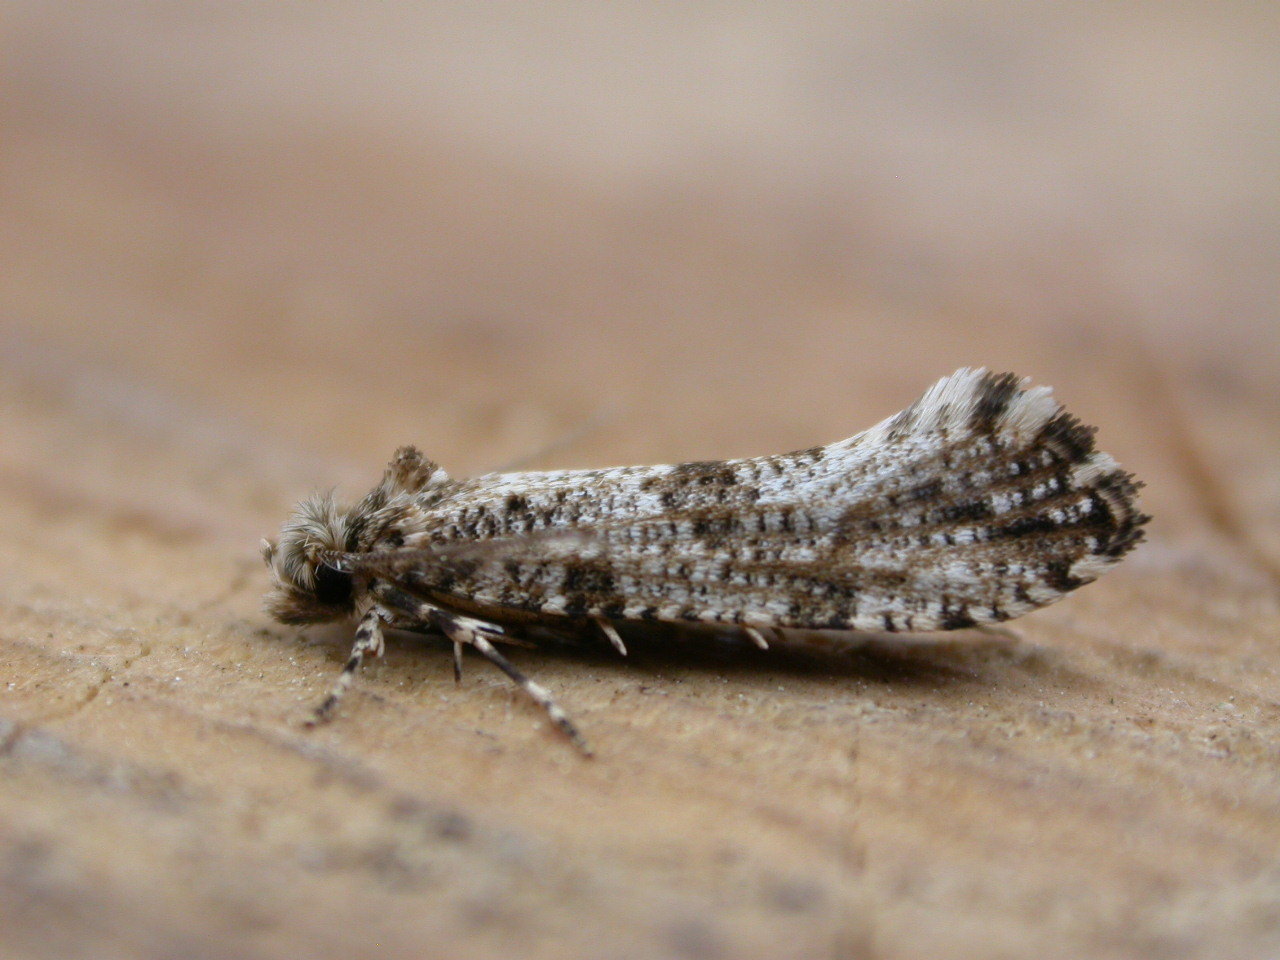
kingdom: Animalia
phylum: Arthropoda
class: Insecta
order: Lepidoptera
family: Tineidae
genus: Morophaga
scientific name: Morophaga choragella
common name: Large clothes
